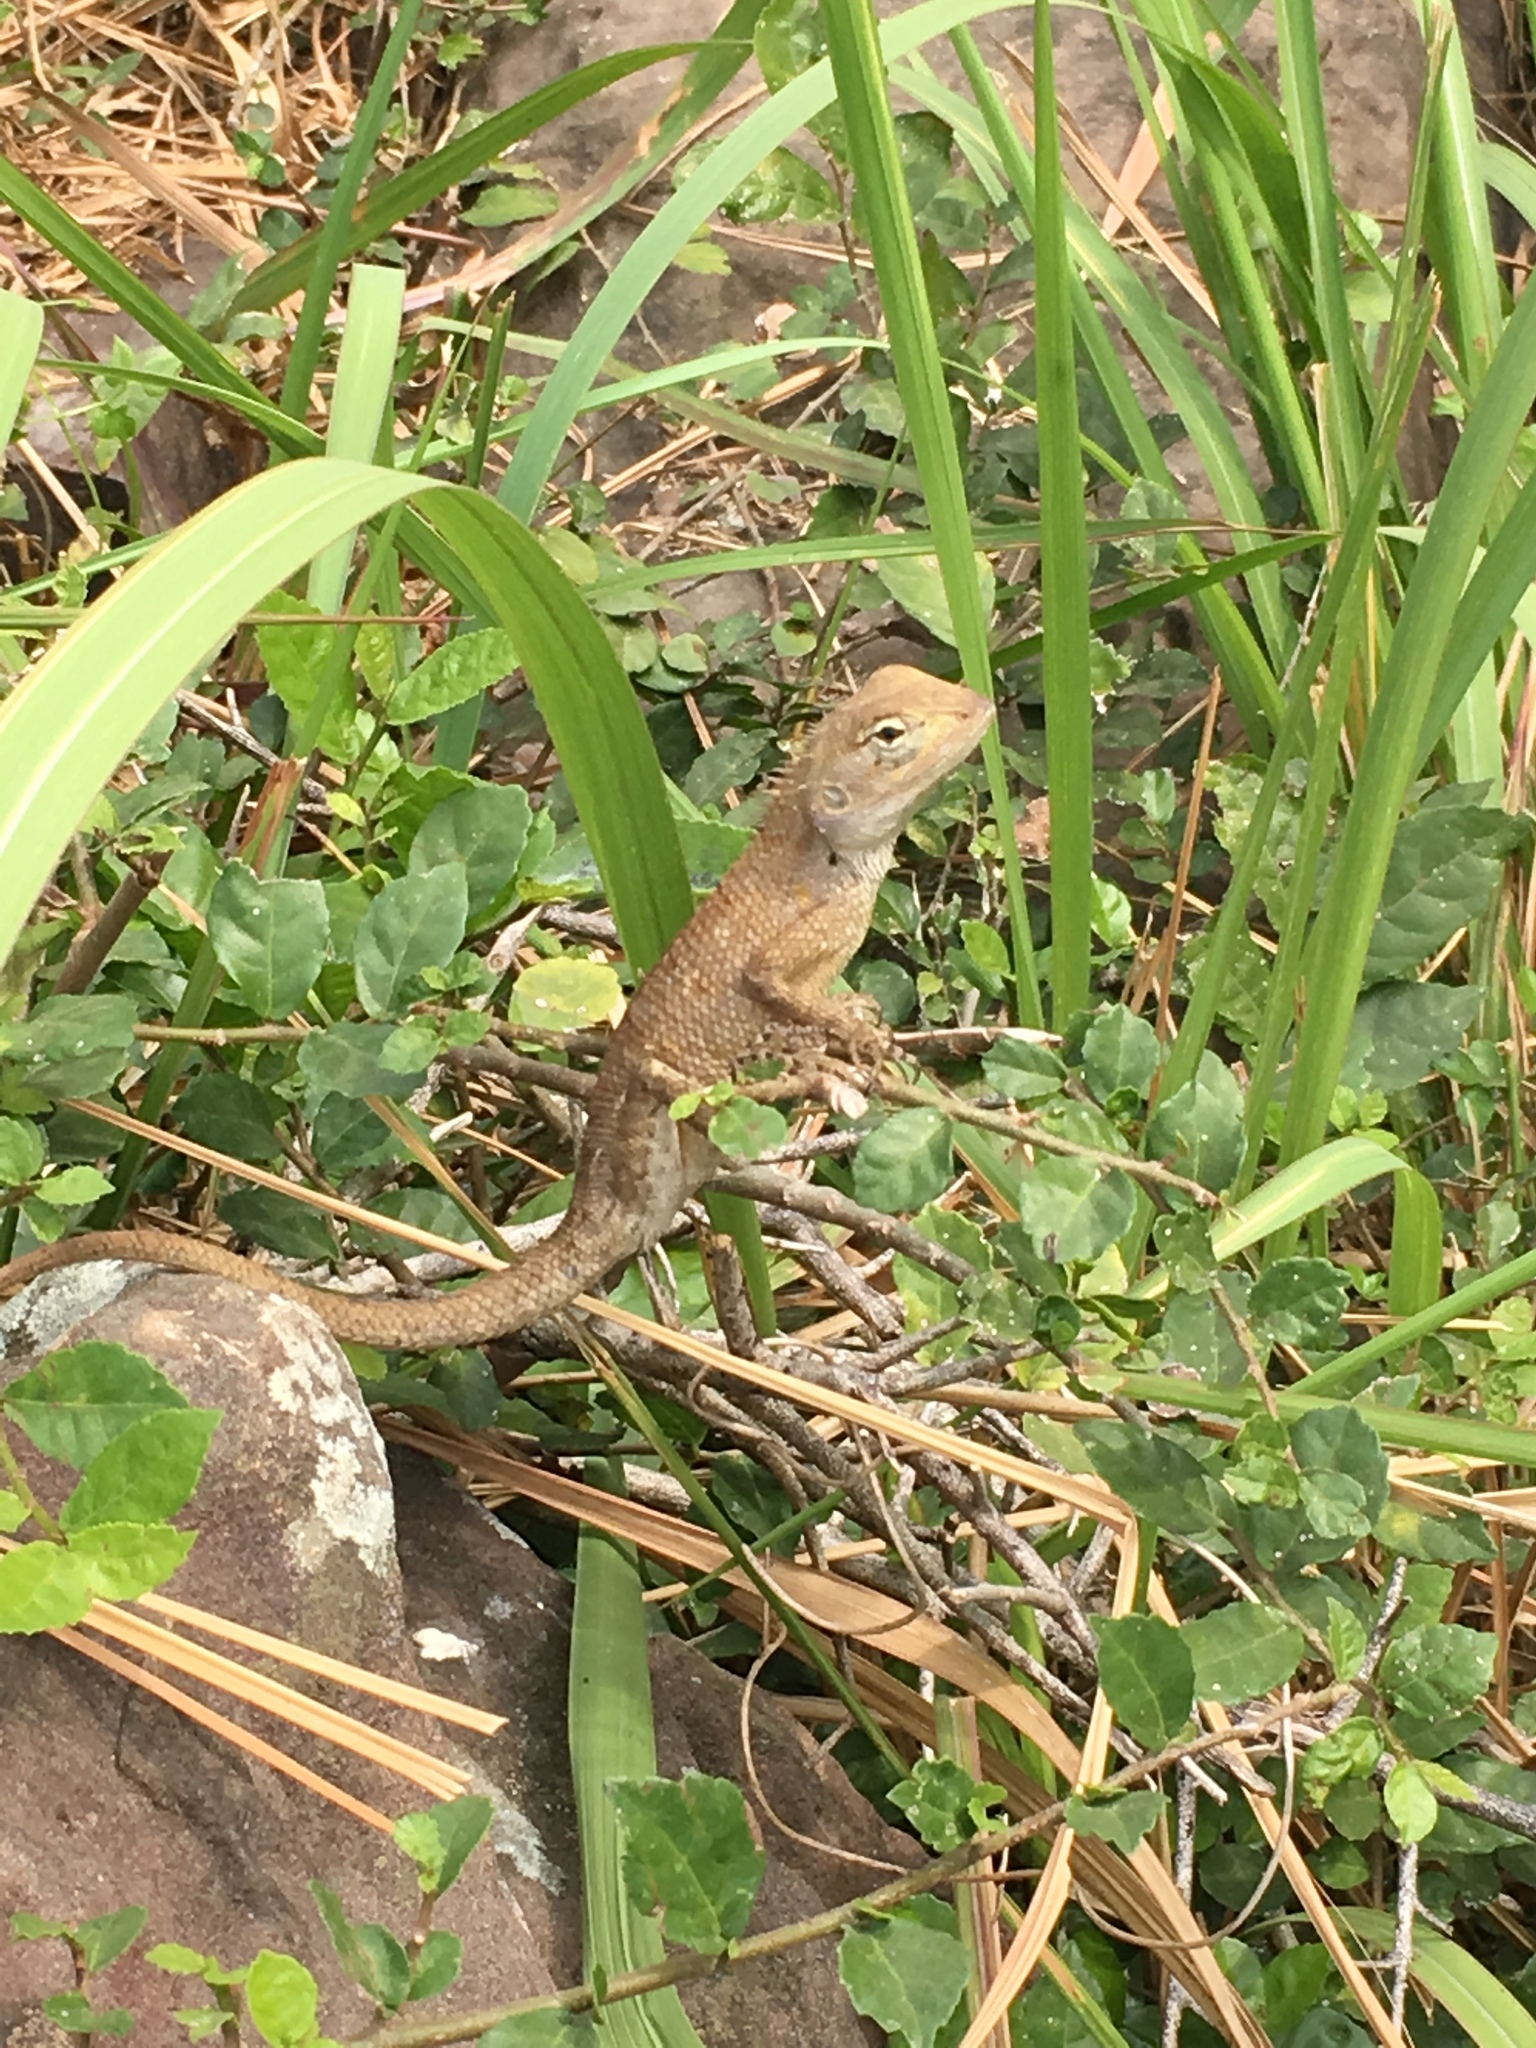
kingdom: Animalia
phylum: Chordata
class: Squamata
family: Agamidae
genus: Calotes
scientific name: Calotes versicolor
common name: Oriental garden lizard
